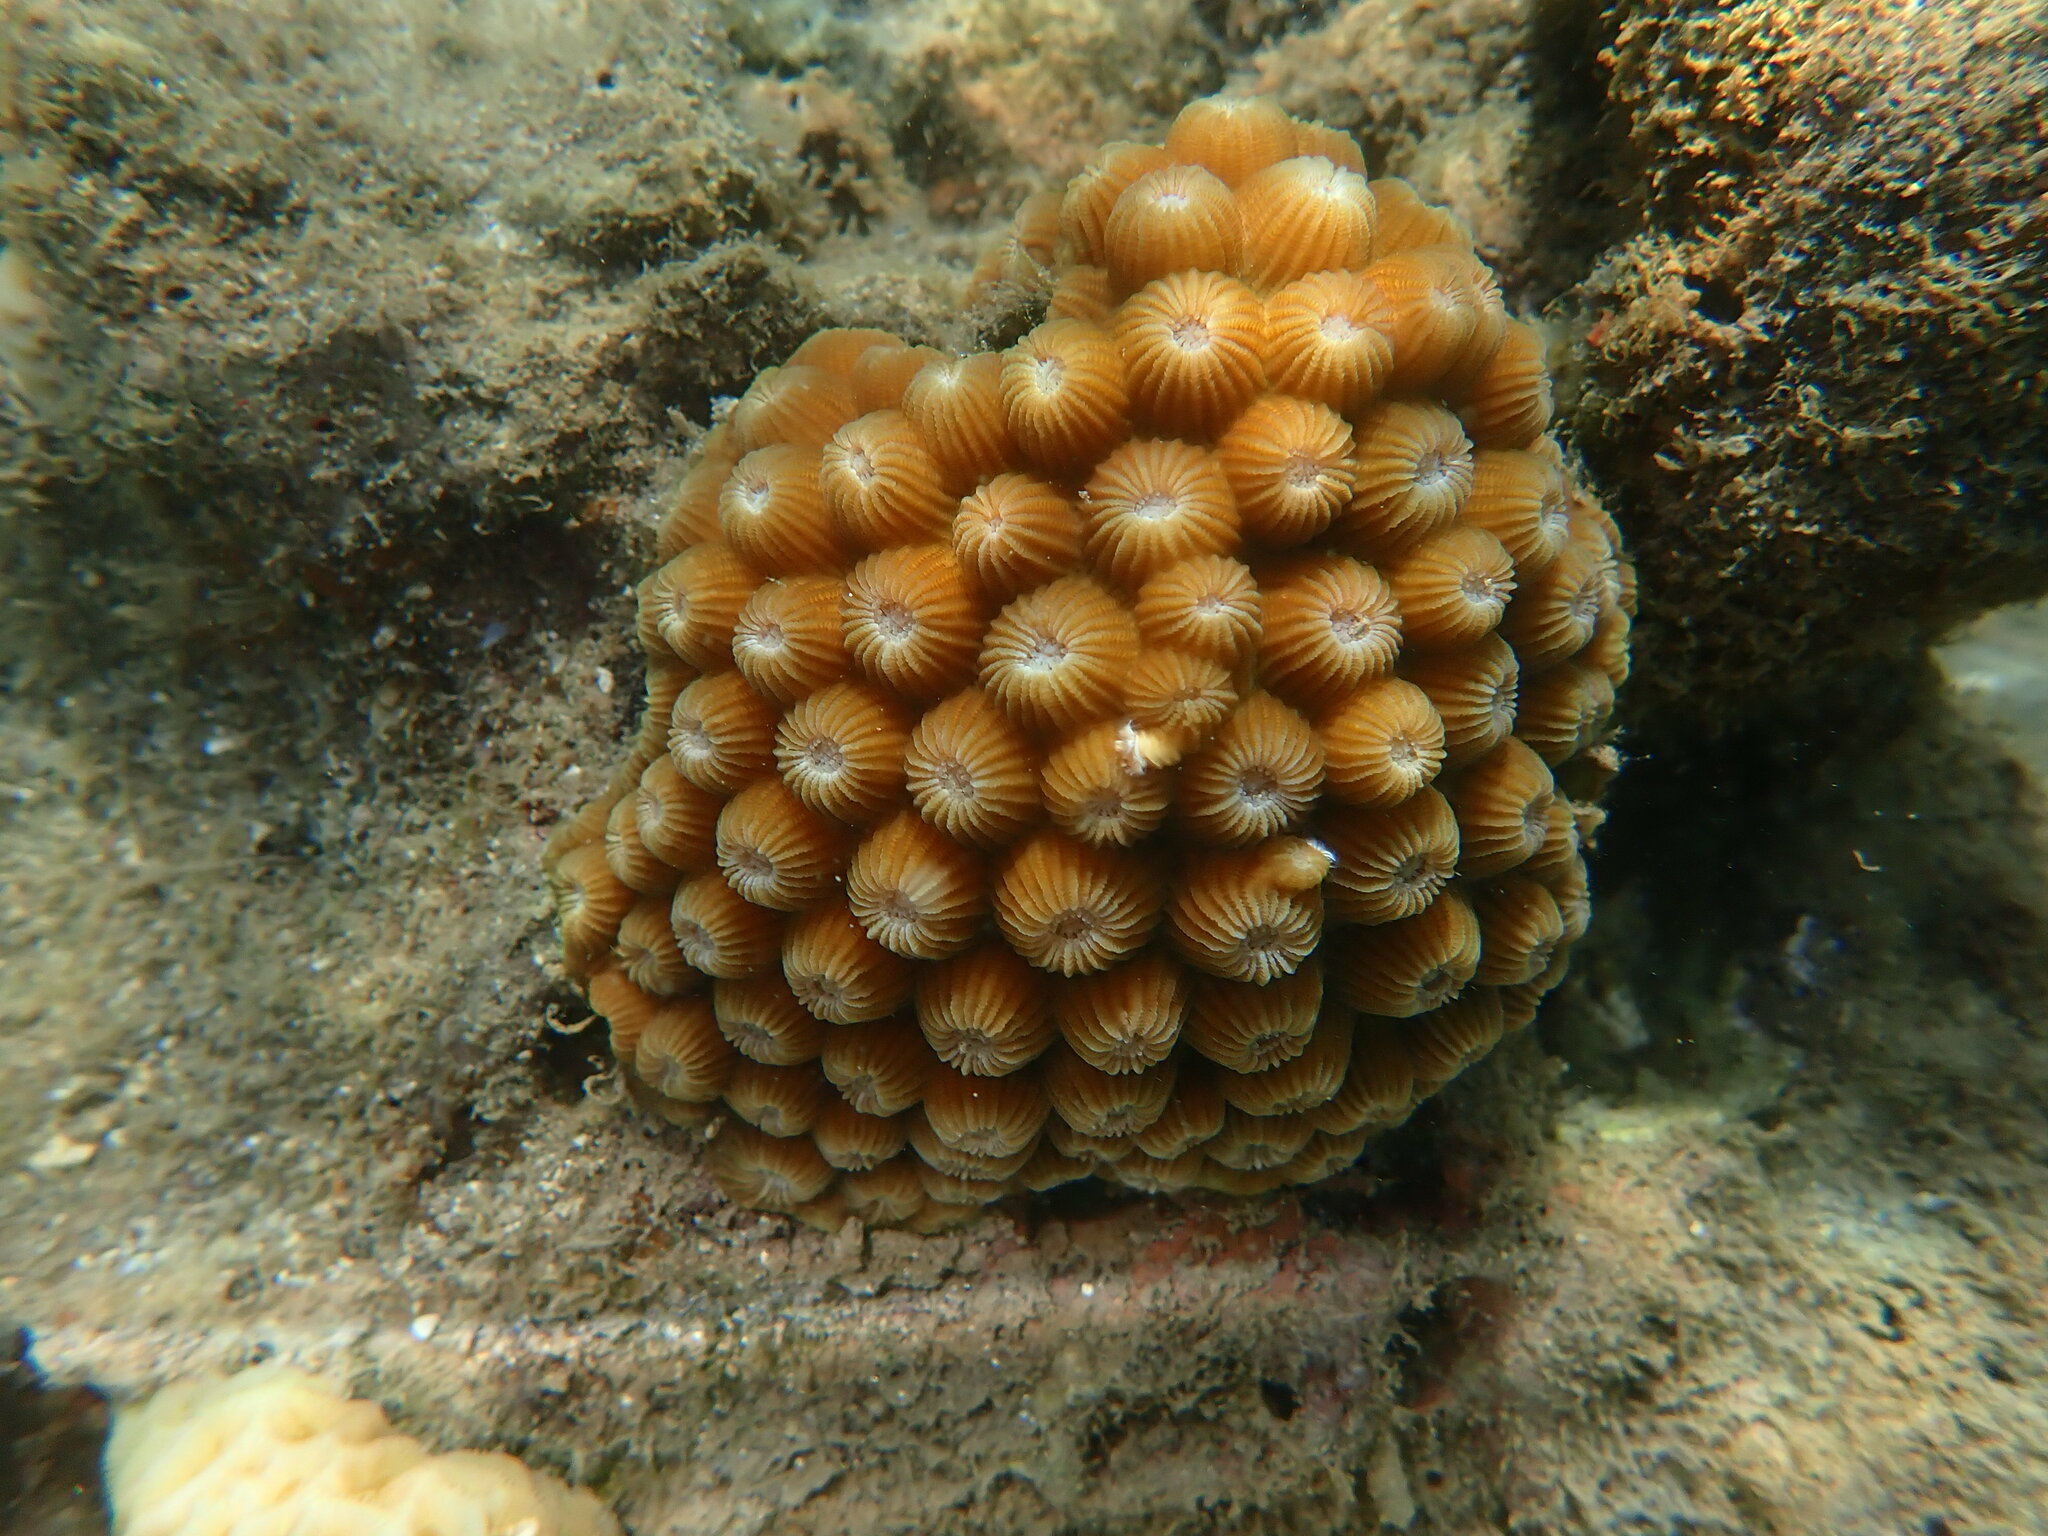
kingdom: Animalia
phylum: Cnidaria
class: Anthozoa
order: Scleractinia
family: Diploastraeidae
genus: Diploastrea
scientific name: Diploastrea heliopora
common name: Double-star coral
